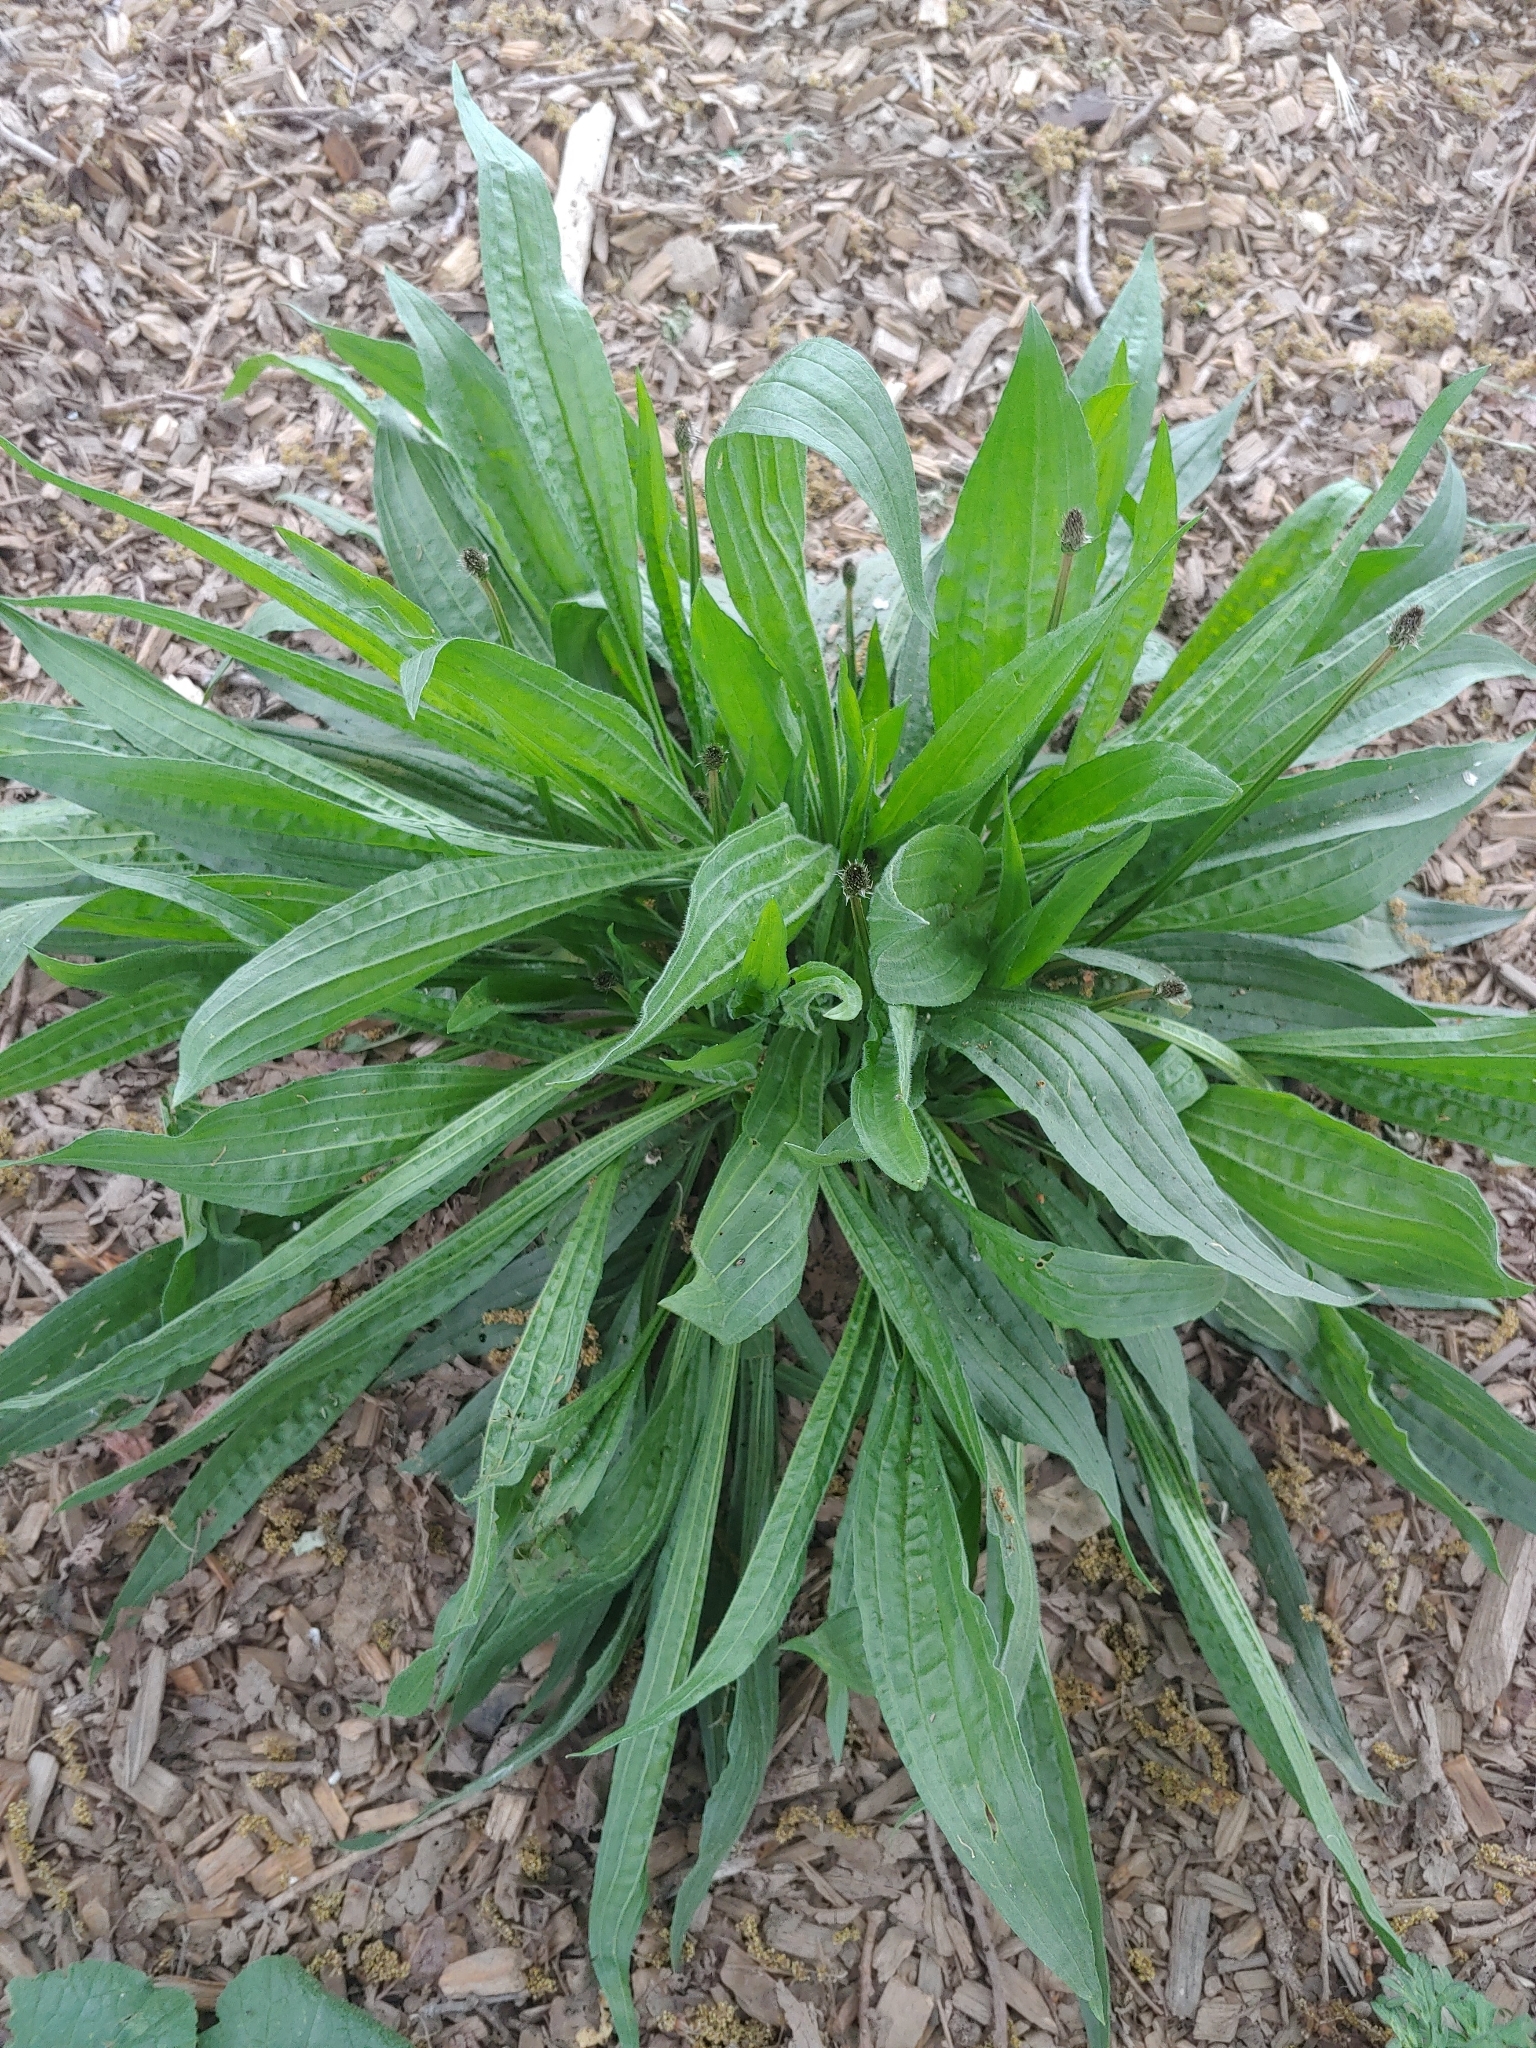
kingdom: Plantae
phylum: Tracheophyta
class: Magnoliopsida
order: Lamiales
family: Plantaginaceae
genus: Plantago
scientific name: Plantago lanceolata
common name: Ribwort plantain
